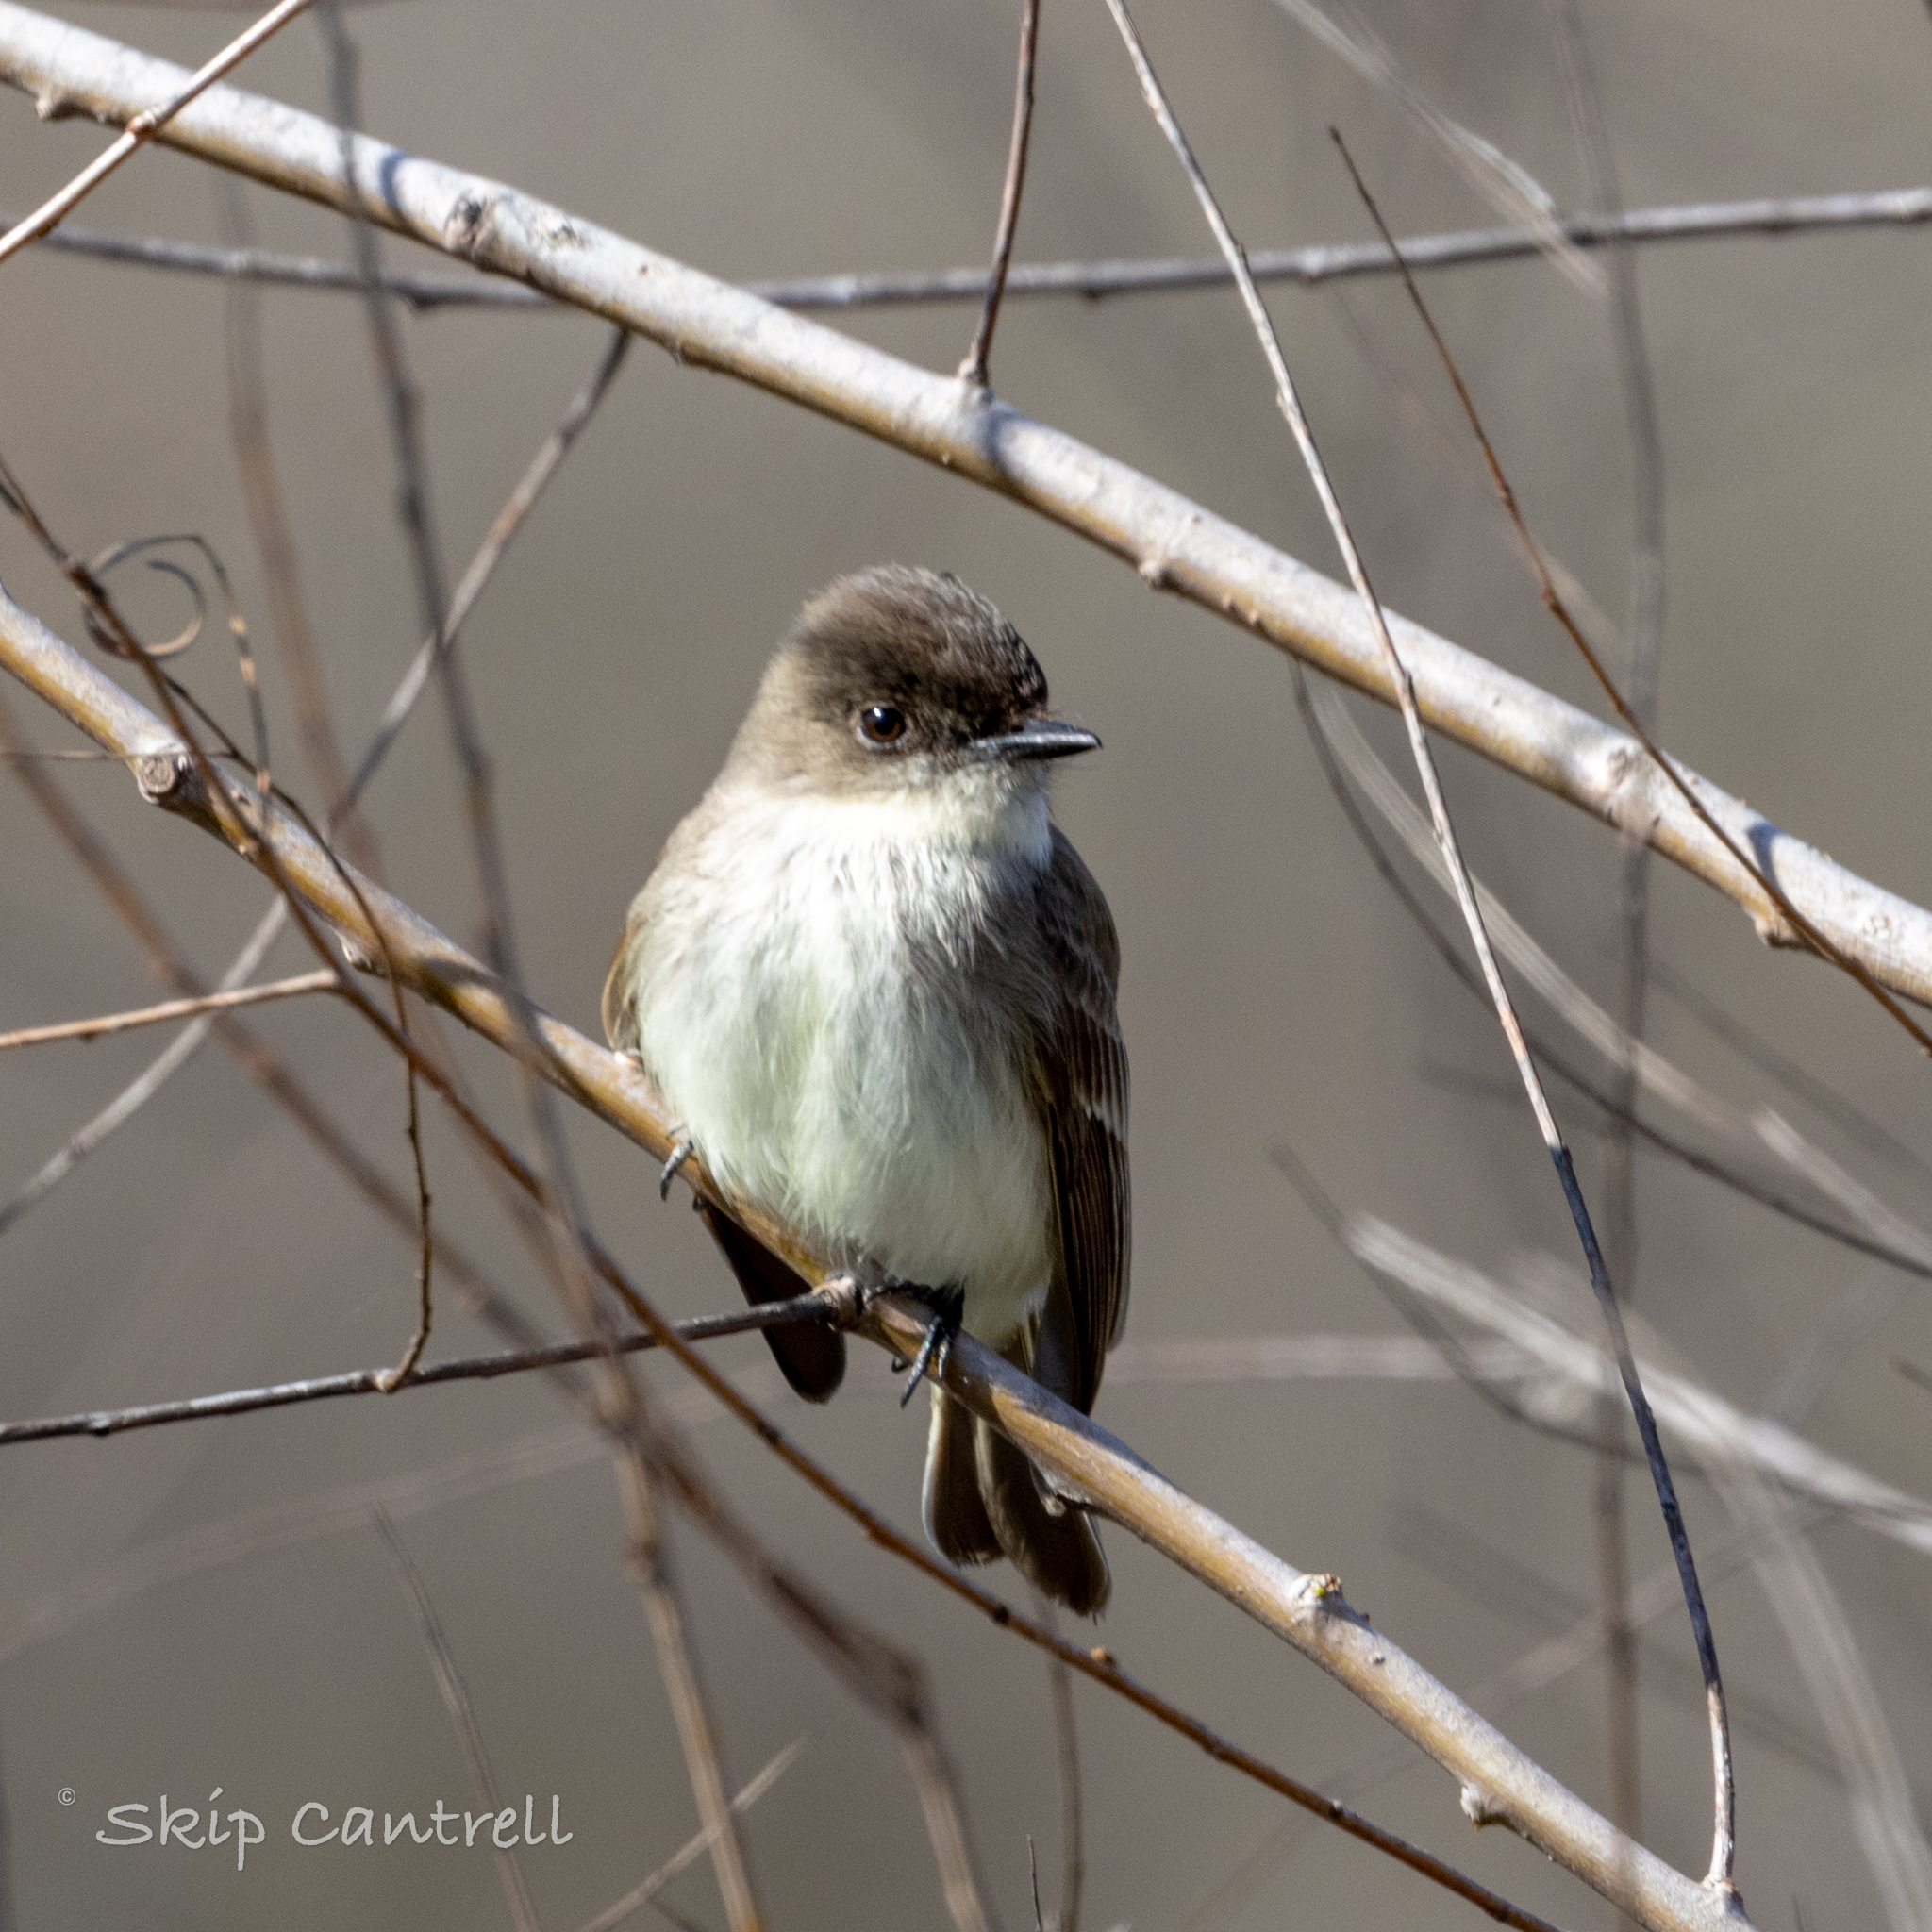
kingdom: Animalia
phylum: Chordata
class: Aves
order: Passeriformes
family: Tyrannidae
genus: Sayornis
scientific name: Sayornis phoebe
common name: Eastern phoebe
